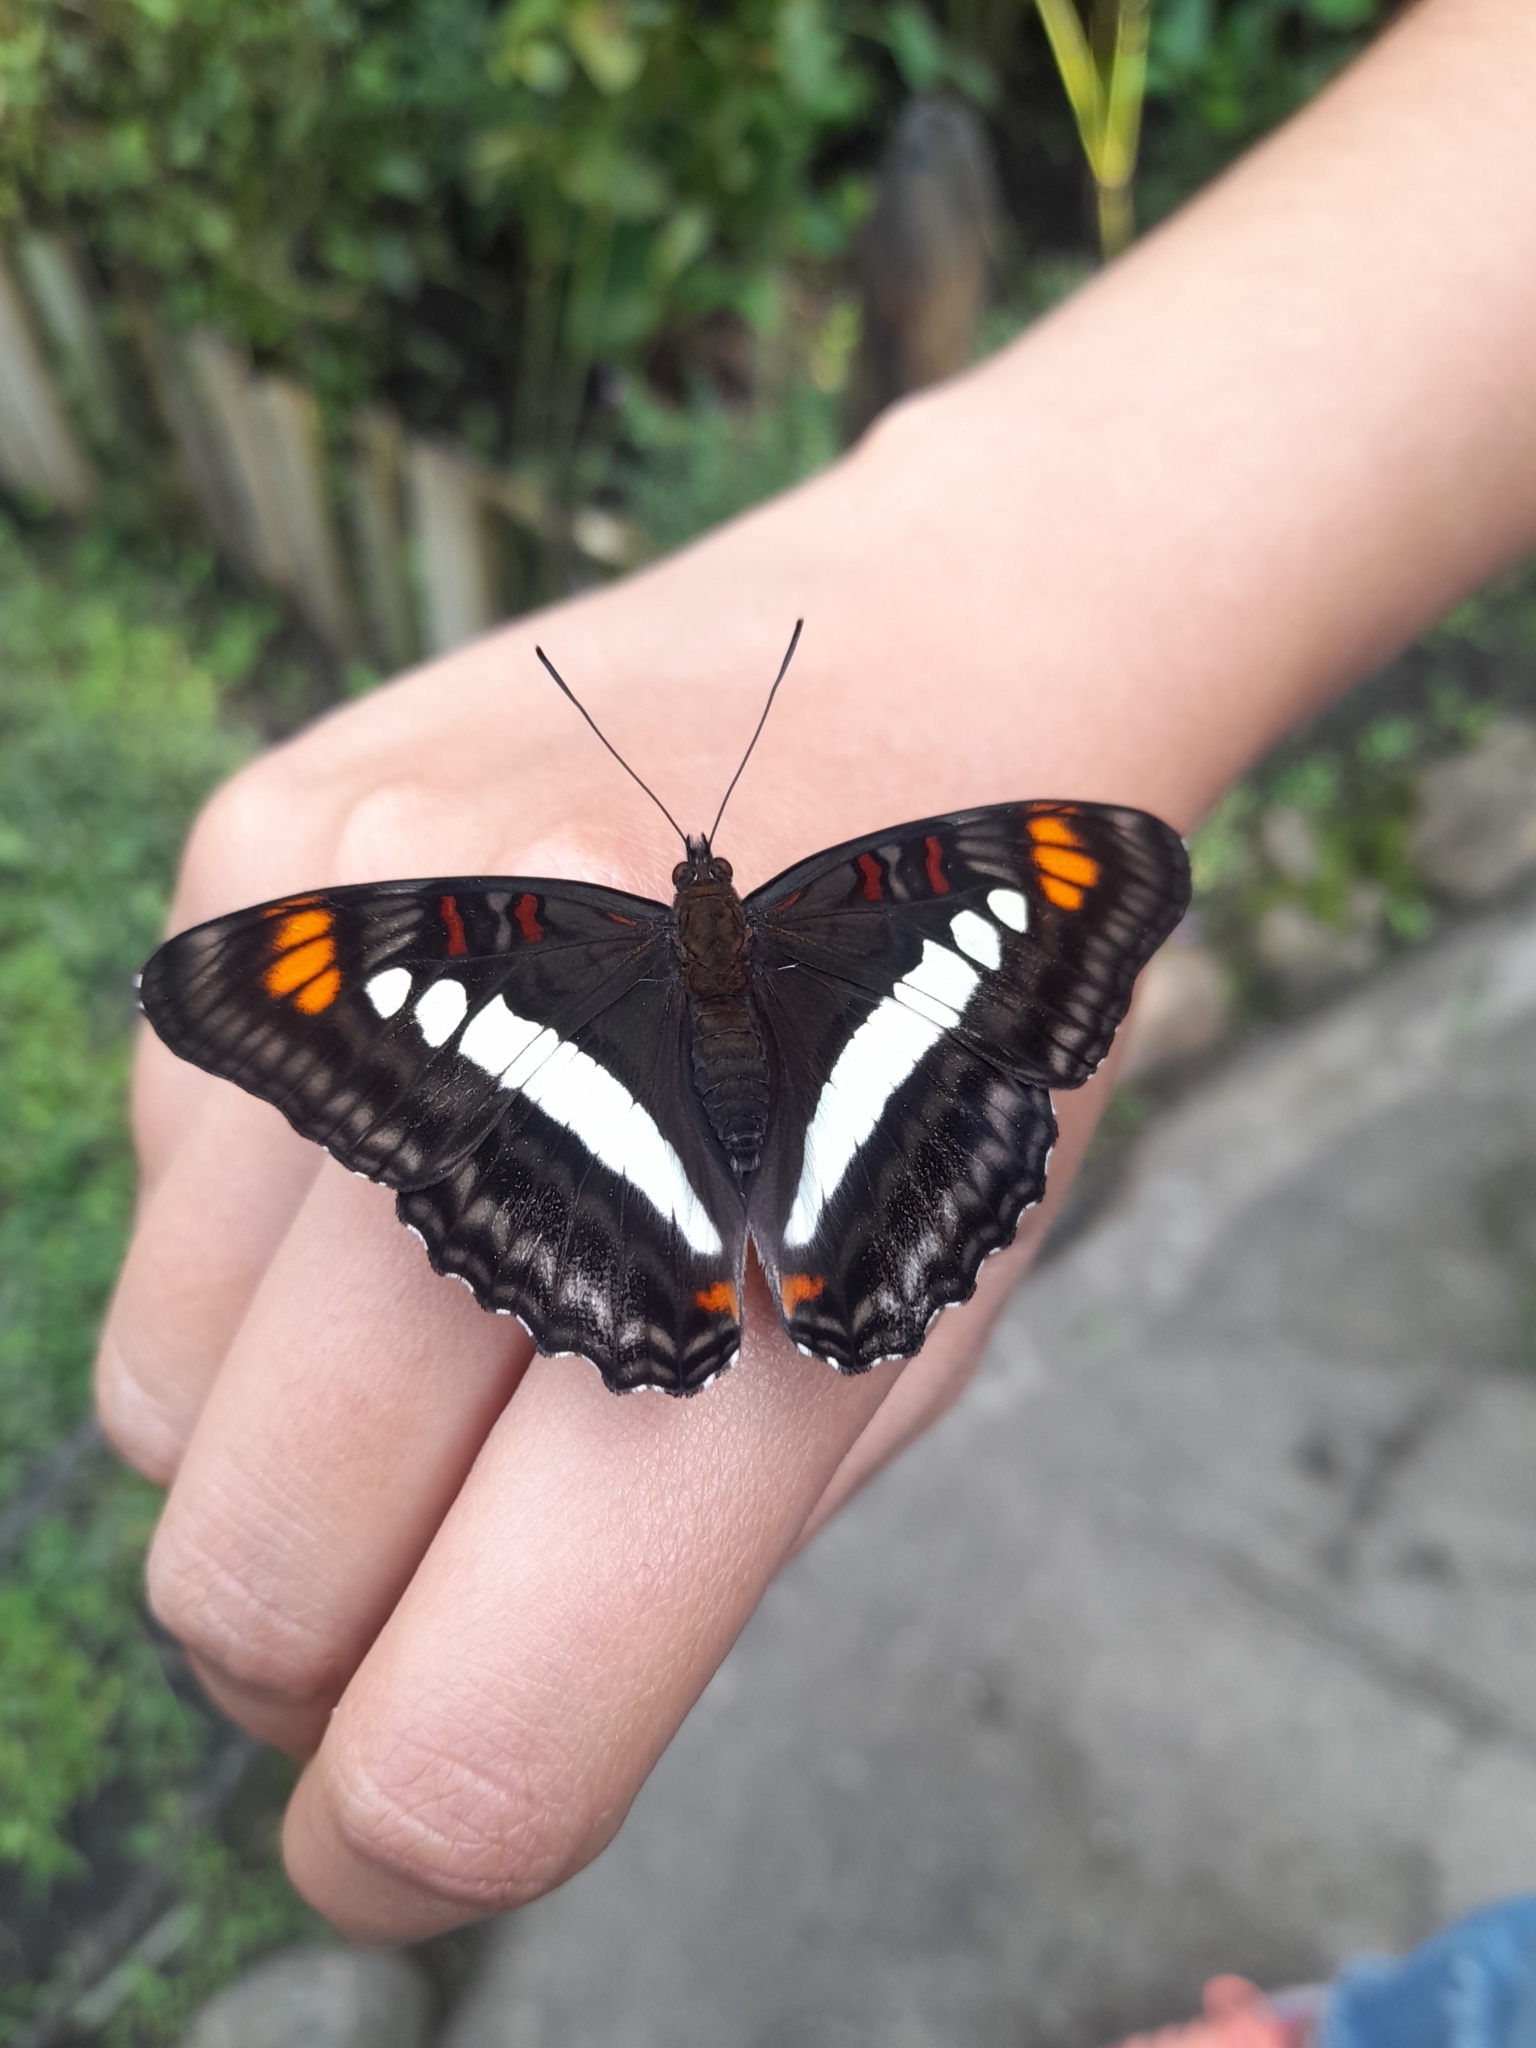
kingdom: Animalia
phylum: Arthropoda
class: Insecta
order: Lepidoptera
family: Nymphalidae
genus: Limenitis
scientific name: Limenitis serpa
